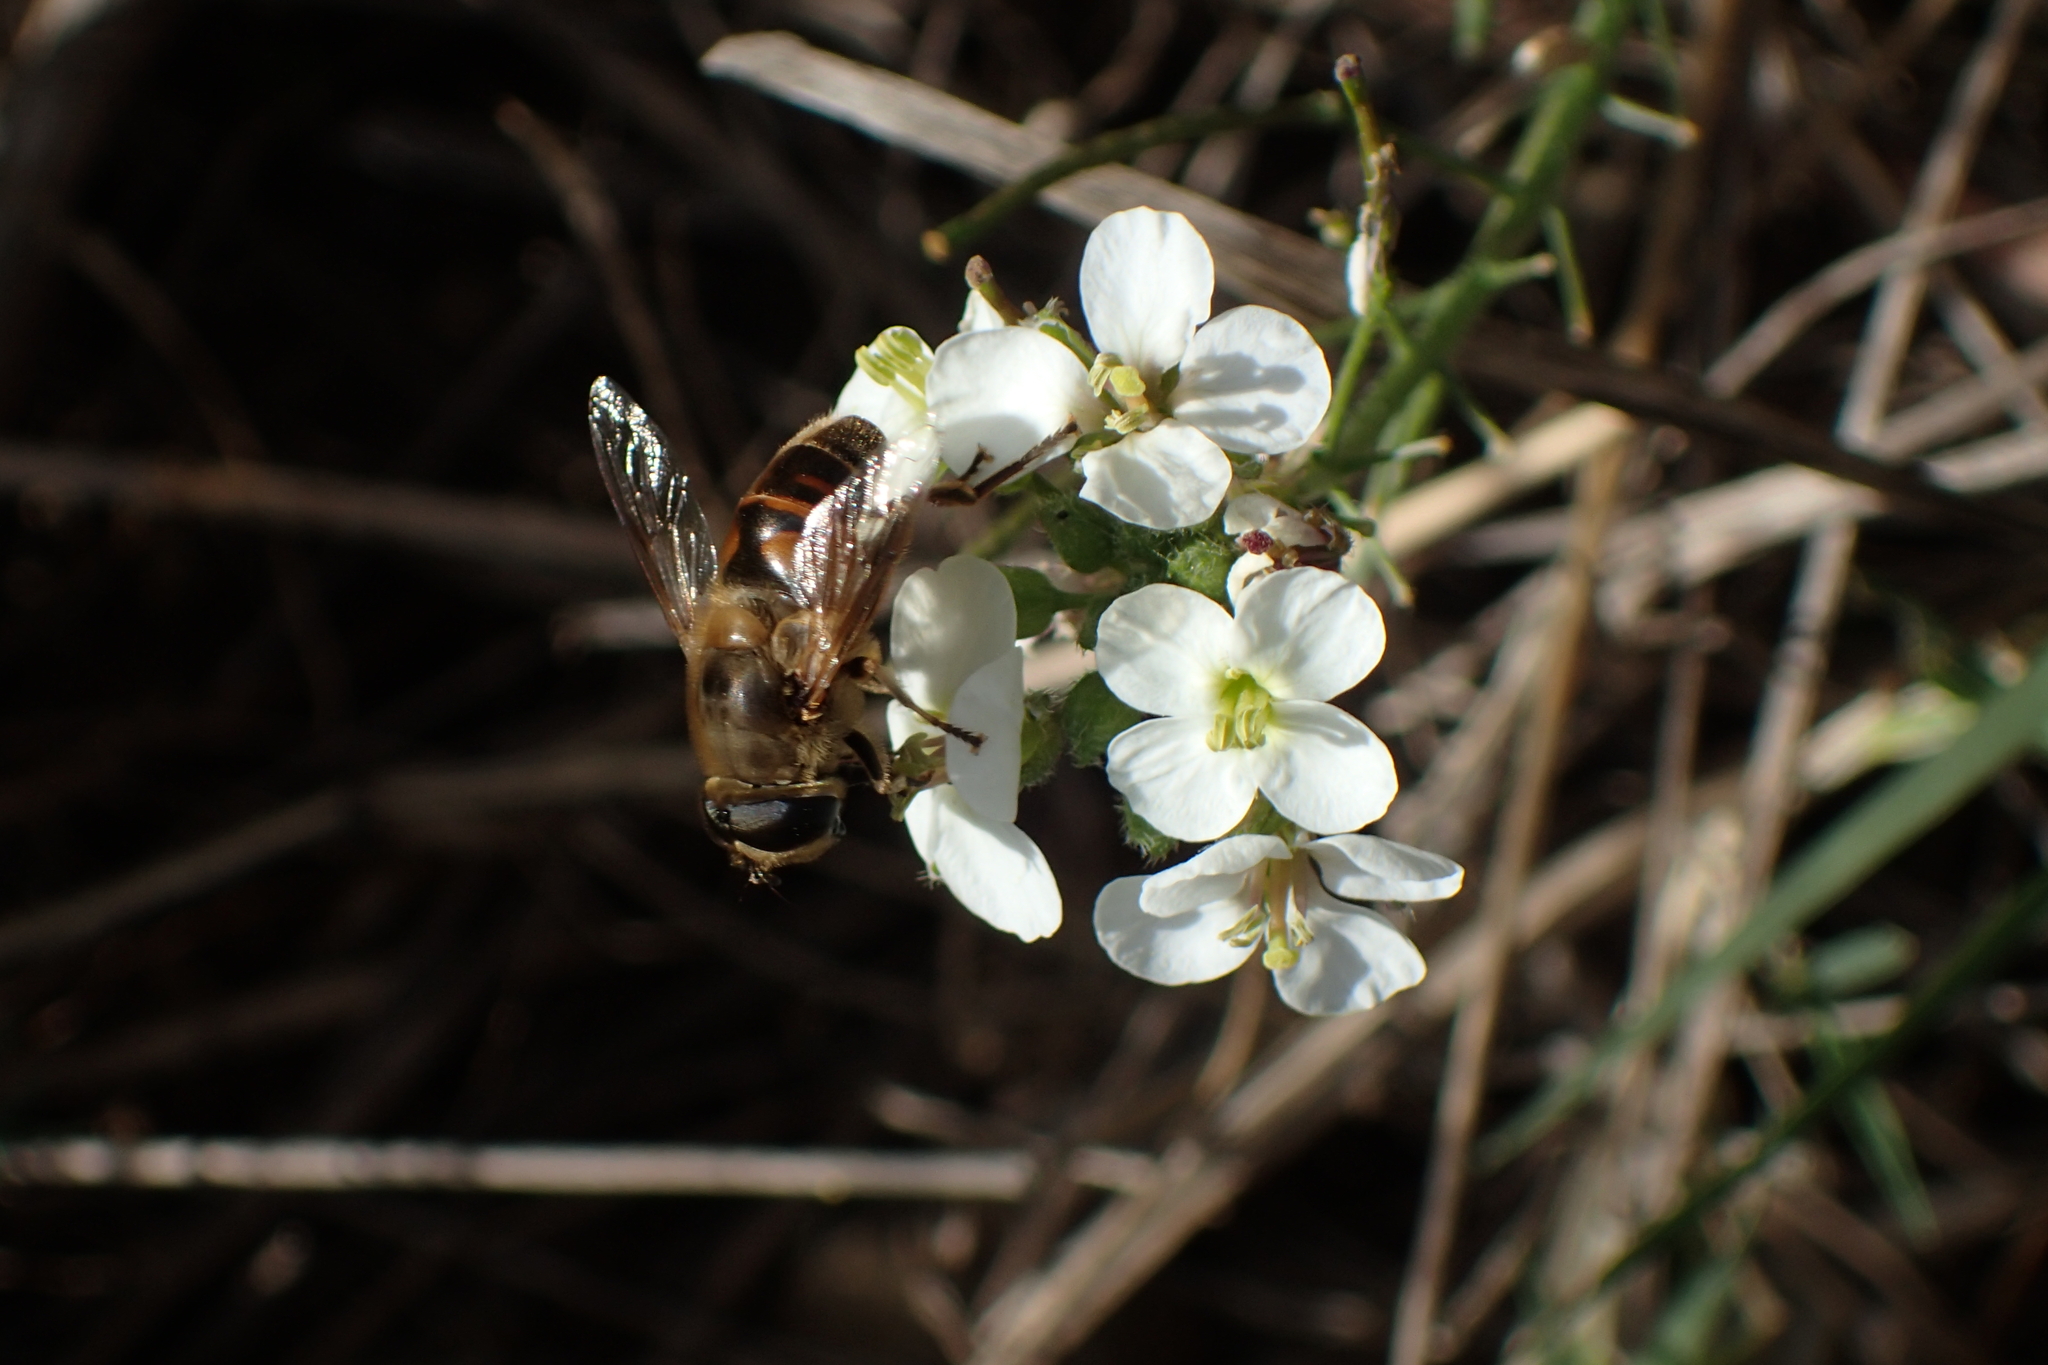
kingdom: Animalia
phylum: Arthropoda
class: Insecta
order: Diptera
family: Syrphidae
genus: Eristalis
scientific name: Eristalis tenax
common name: Drone fly
